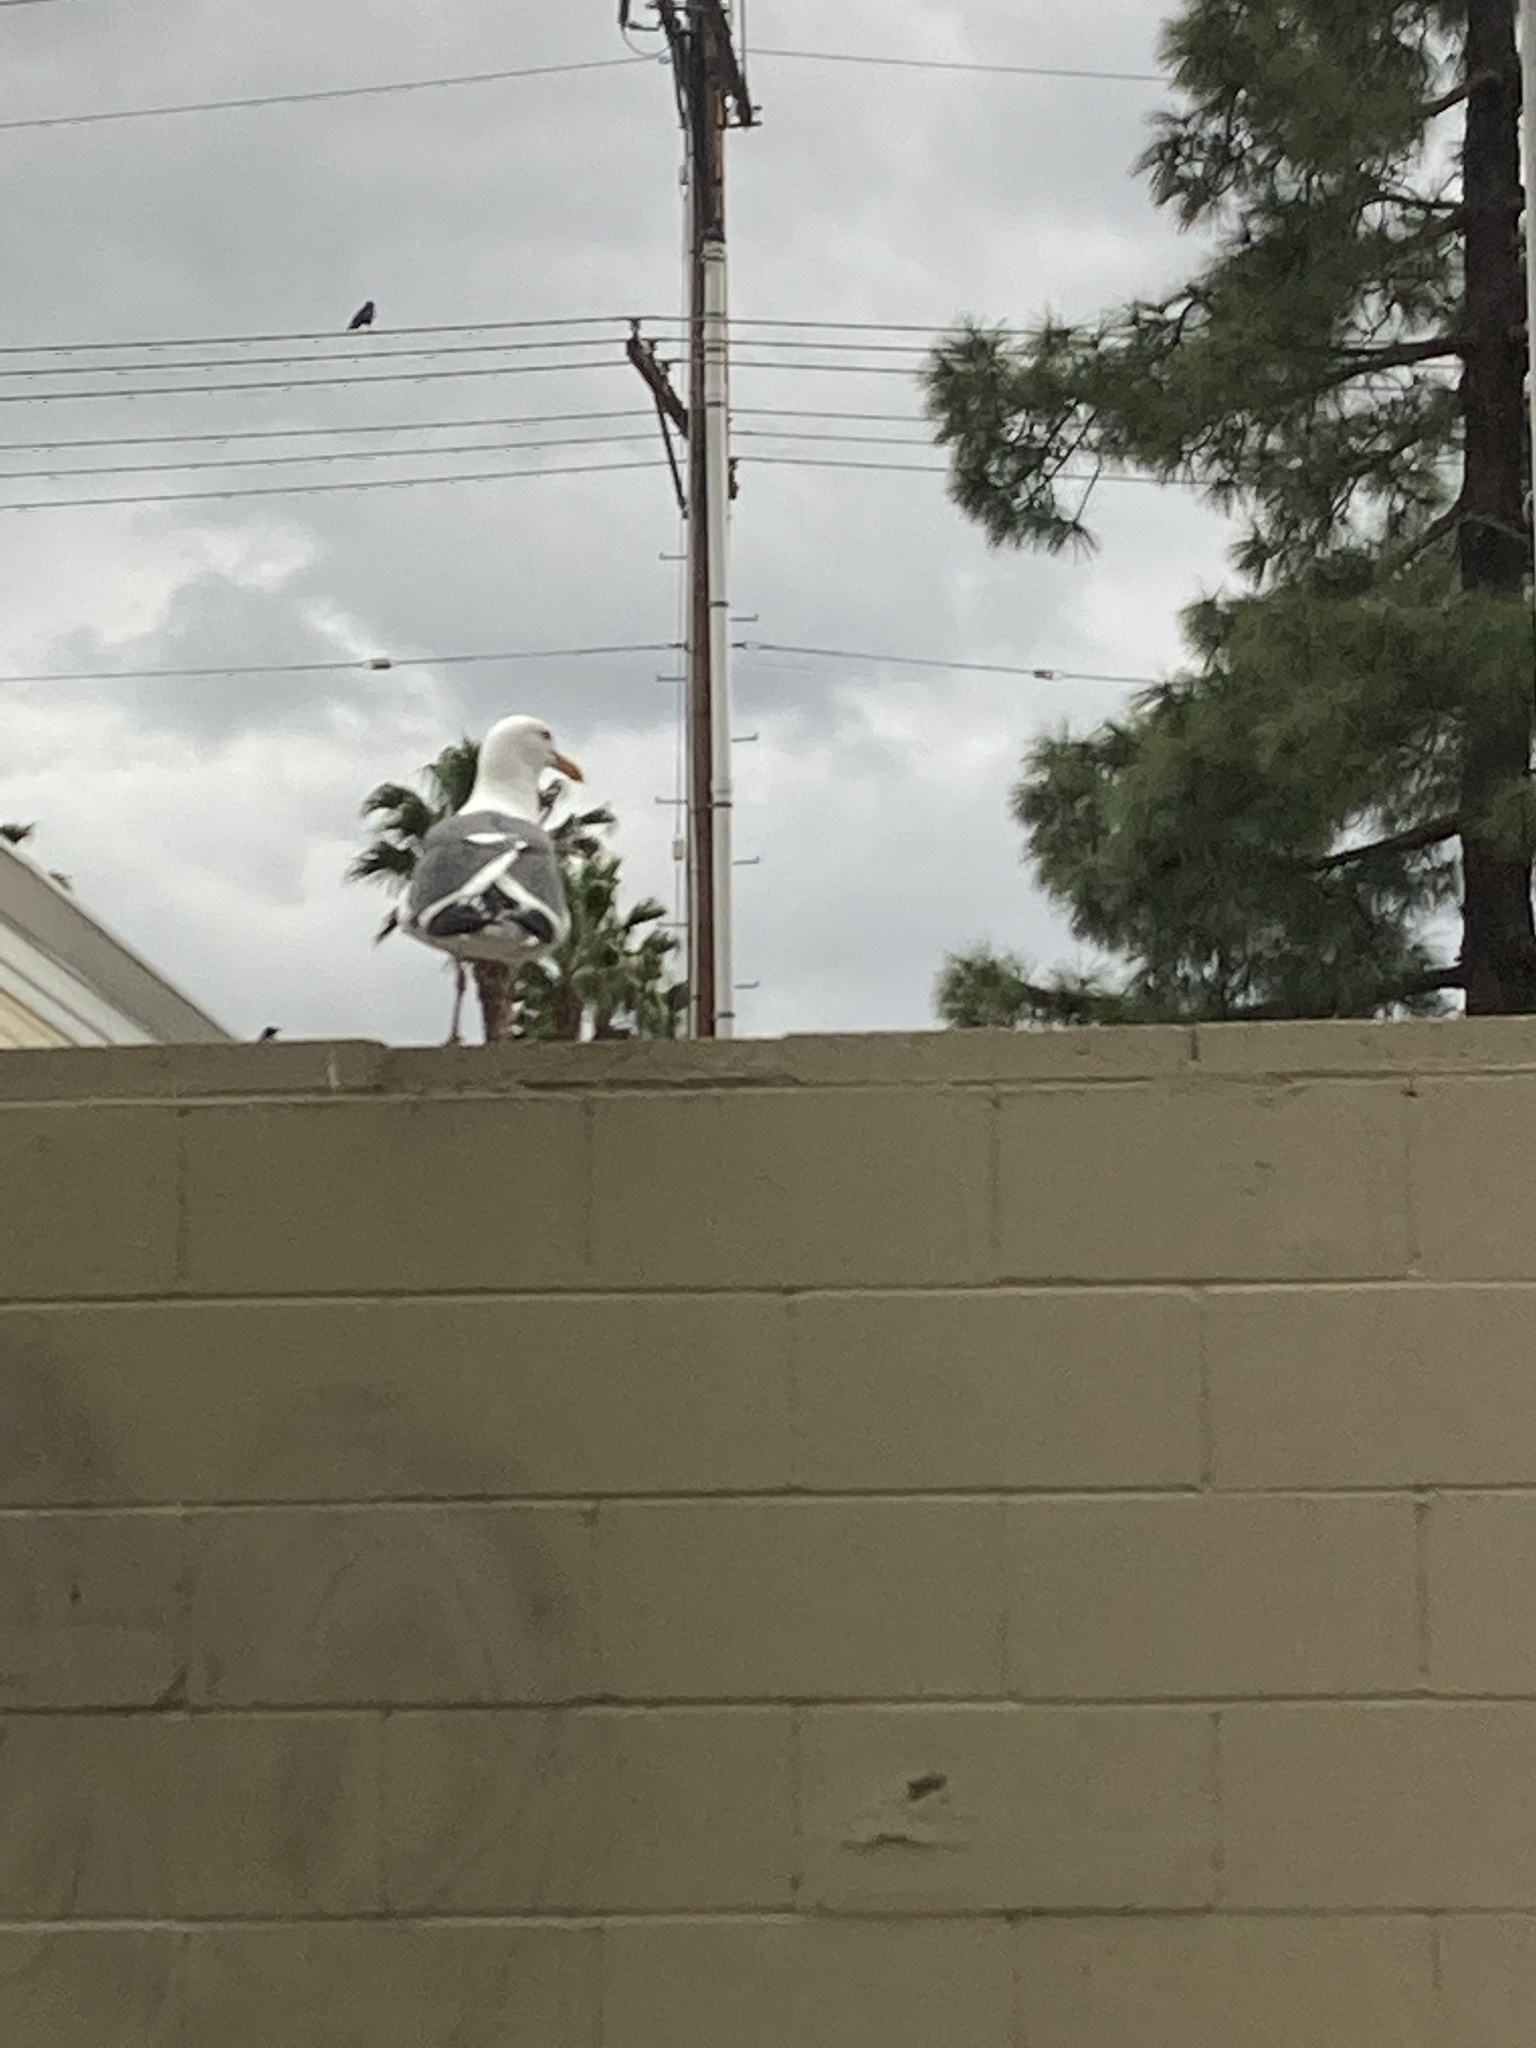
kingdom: Animalia
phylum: Chordata
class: Aves
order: Charadriiformes
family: Laridae
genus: Larus
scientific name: Larus occidentalis
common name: Western gull
